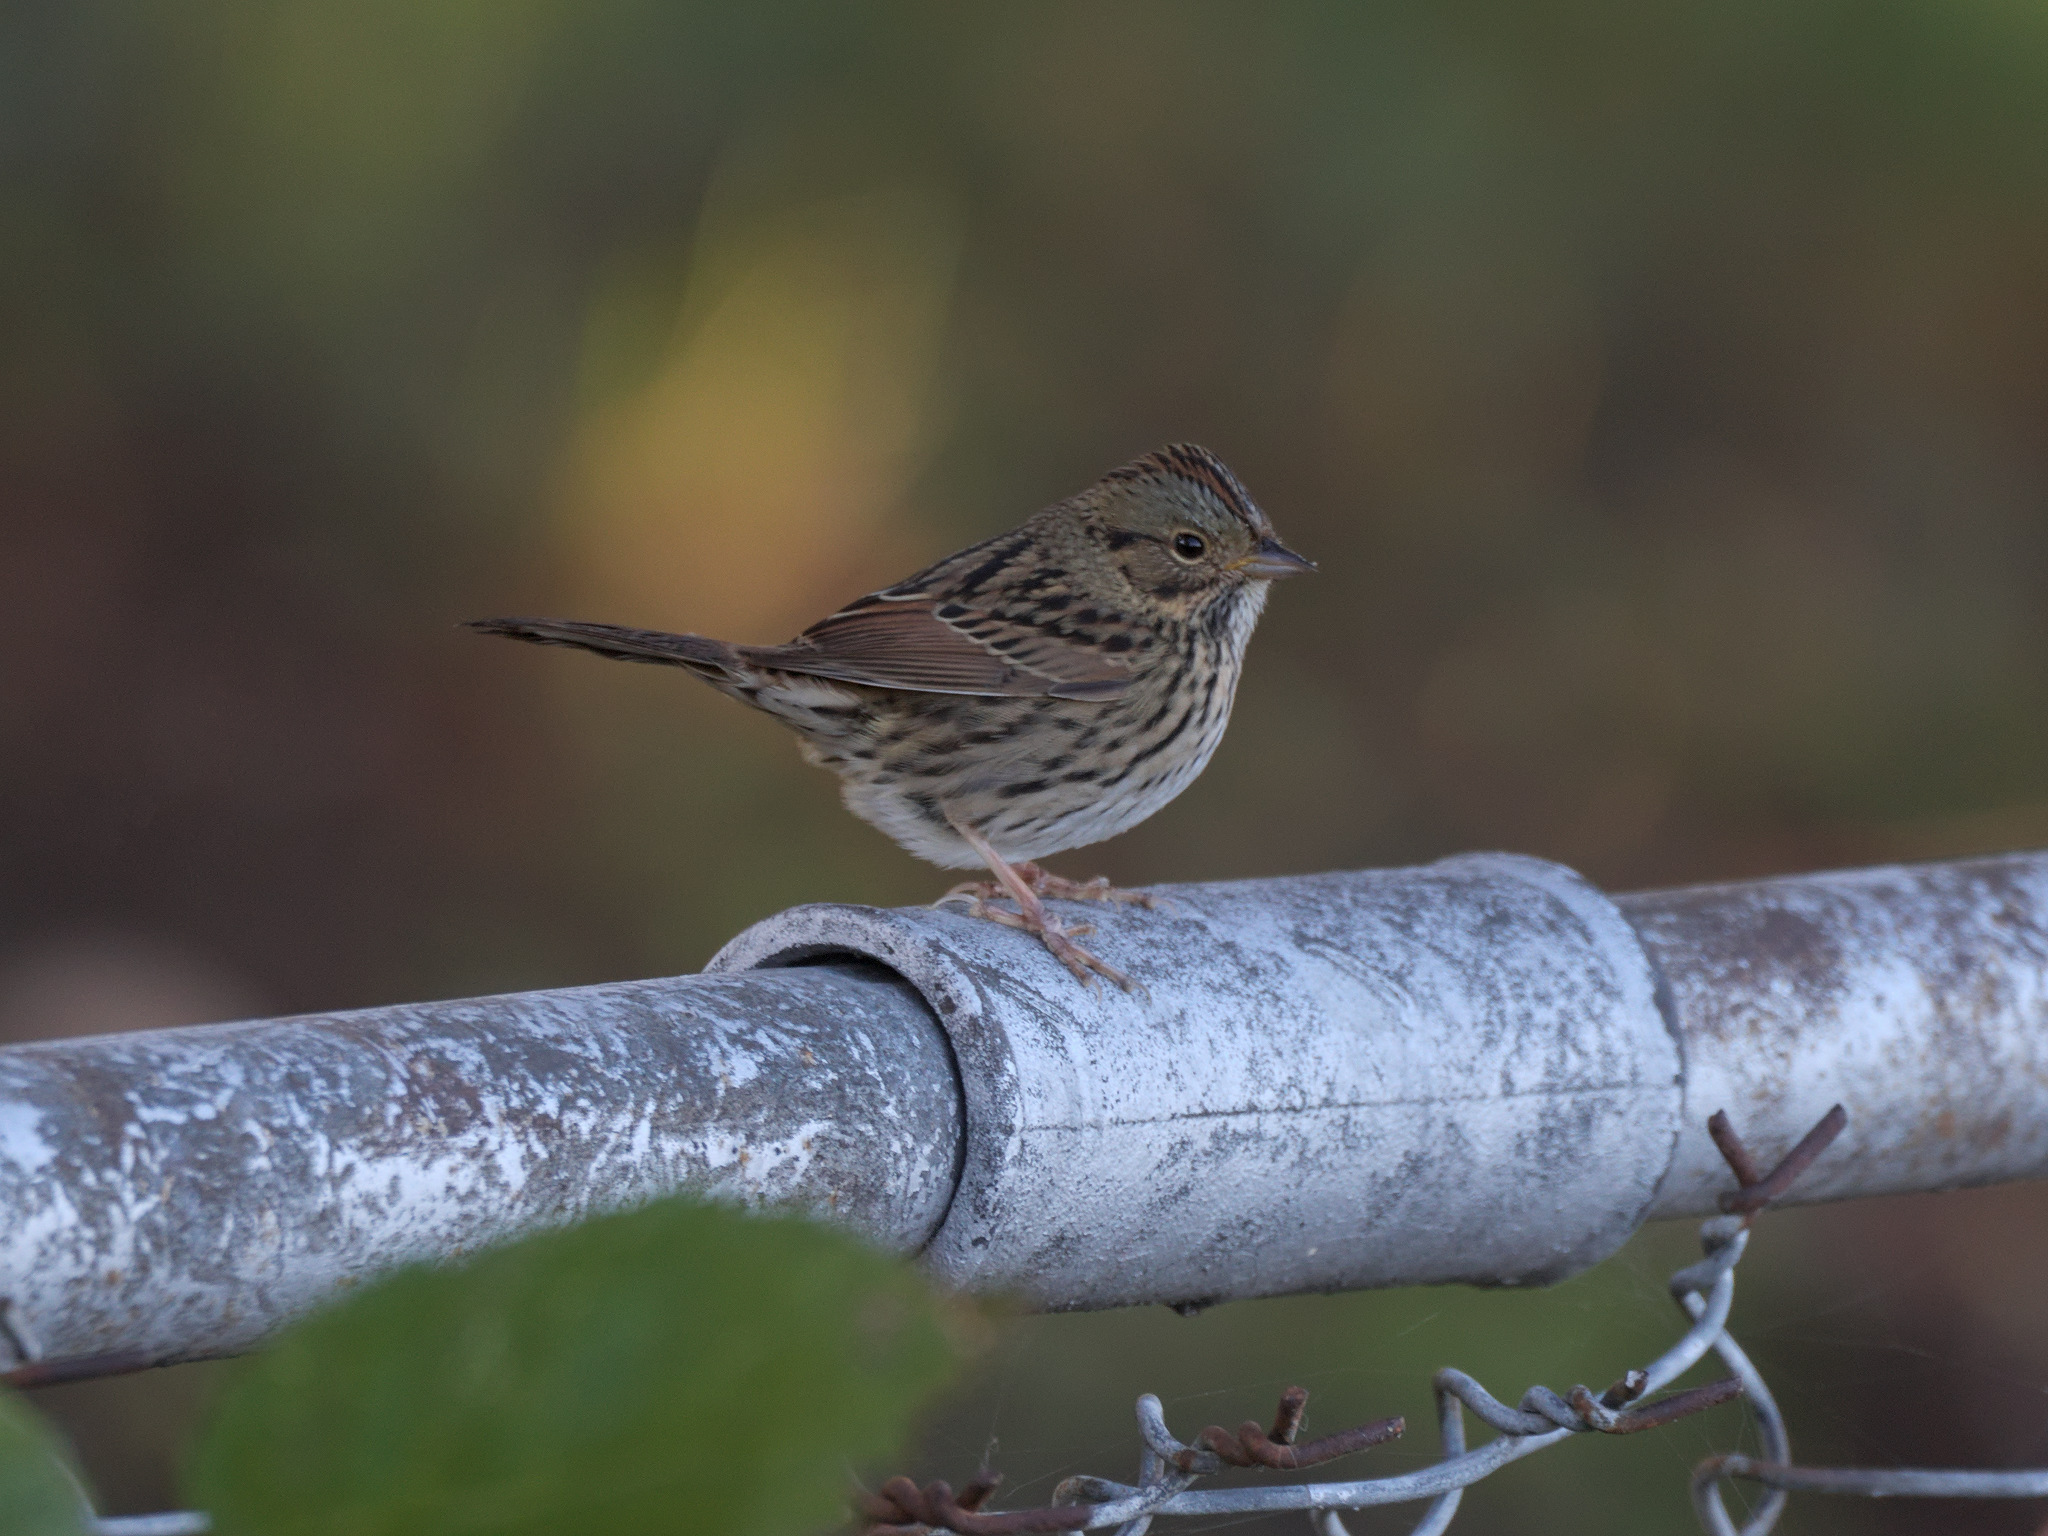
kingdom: Animalia
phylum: Chordata
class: Aves
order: Passeriformes
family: Passerellidae
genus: Melospiza
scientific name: Melospiza lincolnii
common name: Lincoln's sparrow
